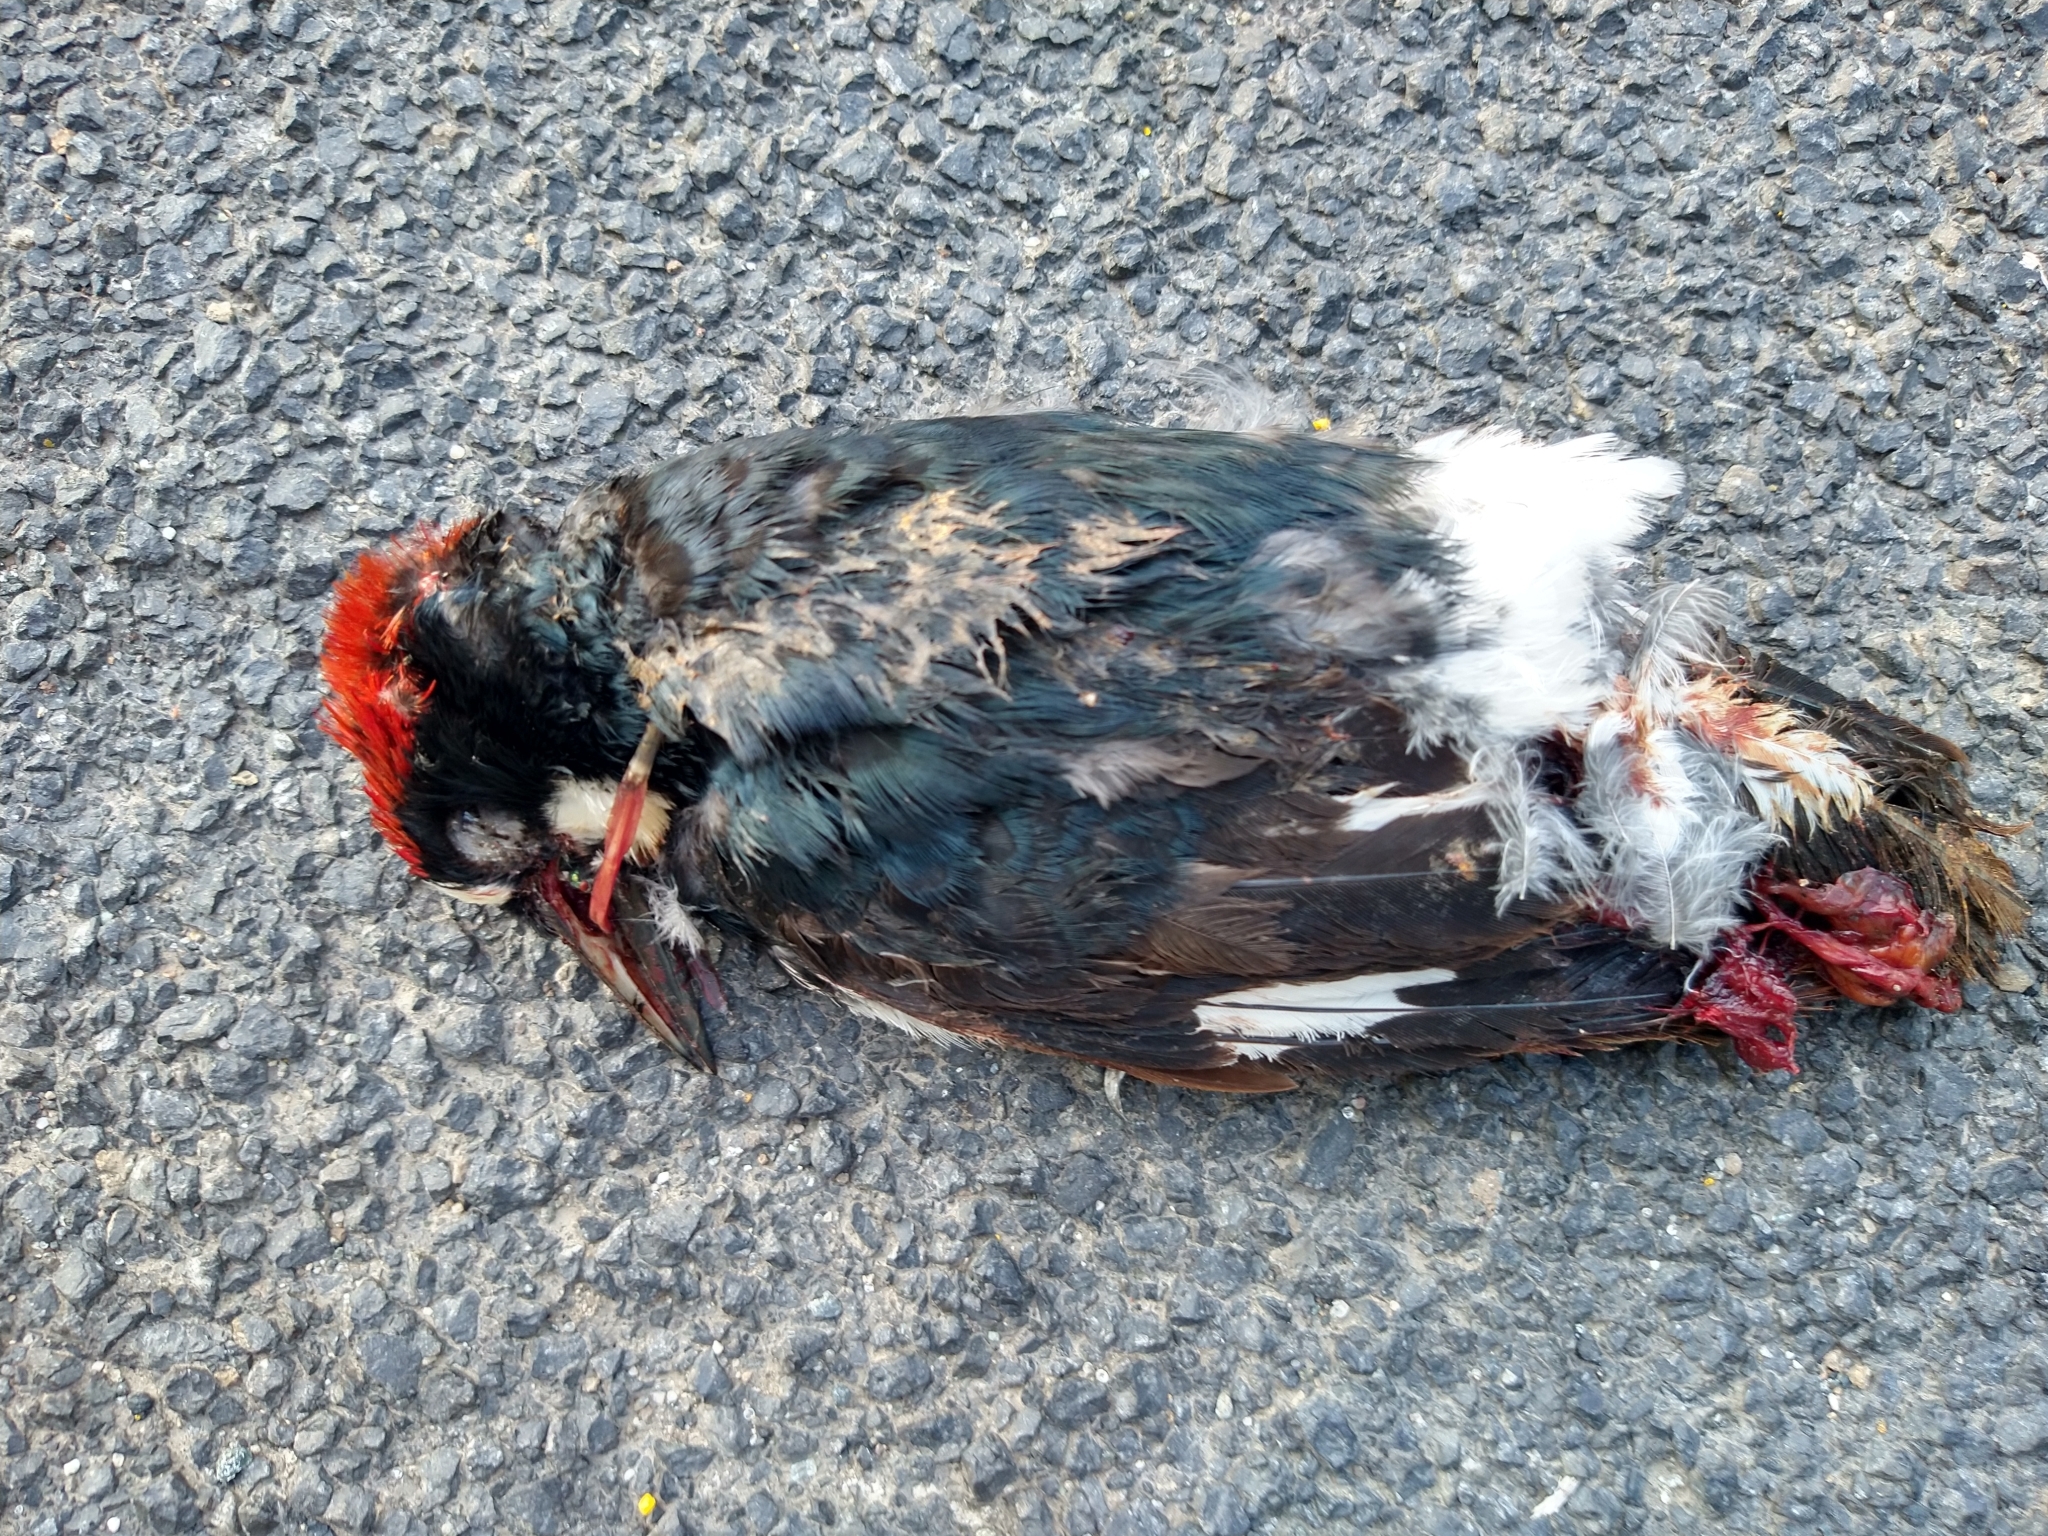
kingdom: Animalia
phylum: Chordata
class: Aves
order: Piciformes
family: Picidae
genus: Melanerpes
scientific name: Melanerpes formicivorus
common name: Acorn woodpecker
